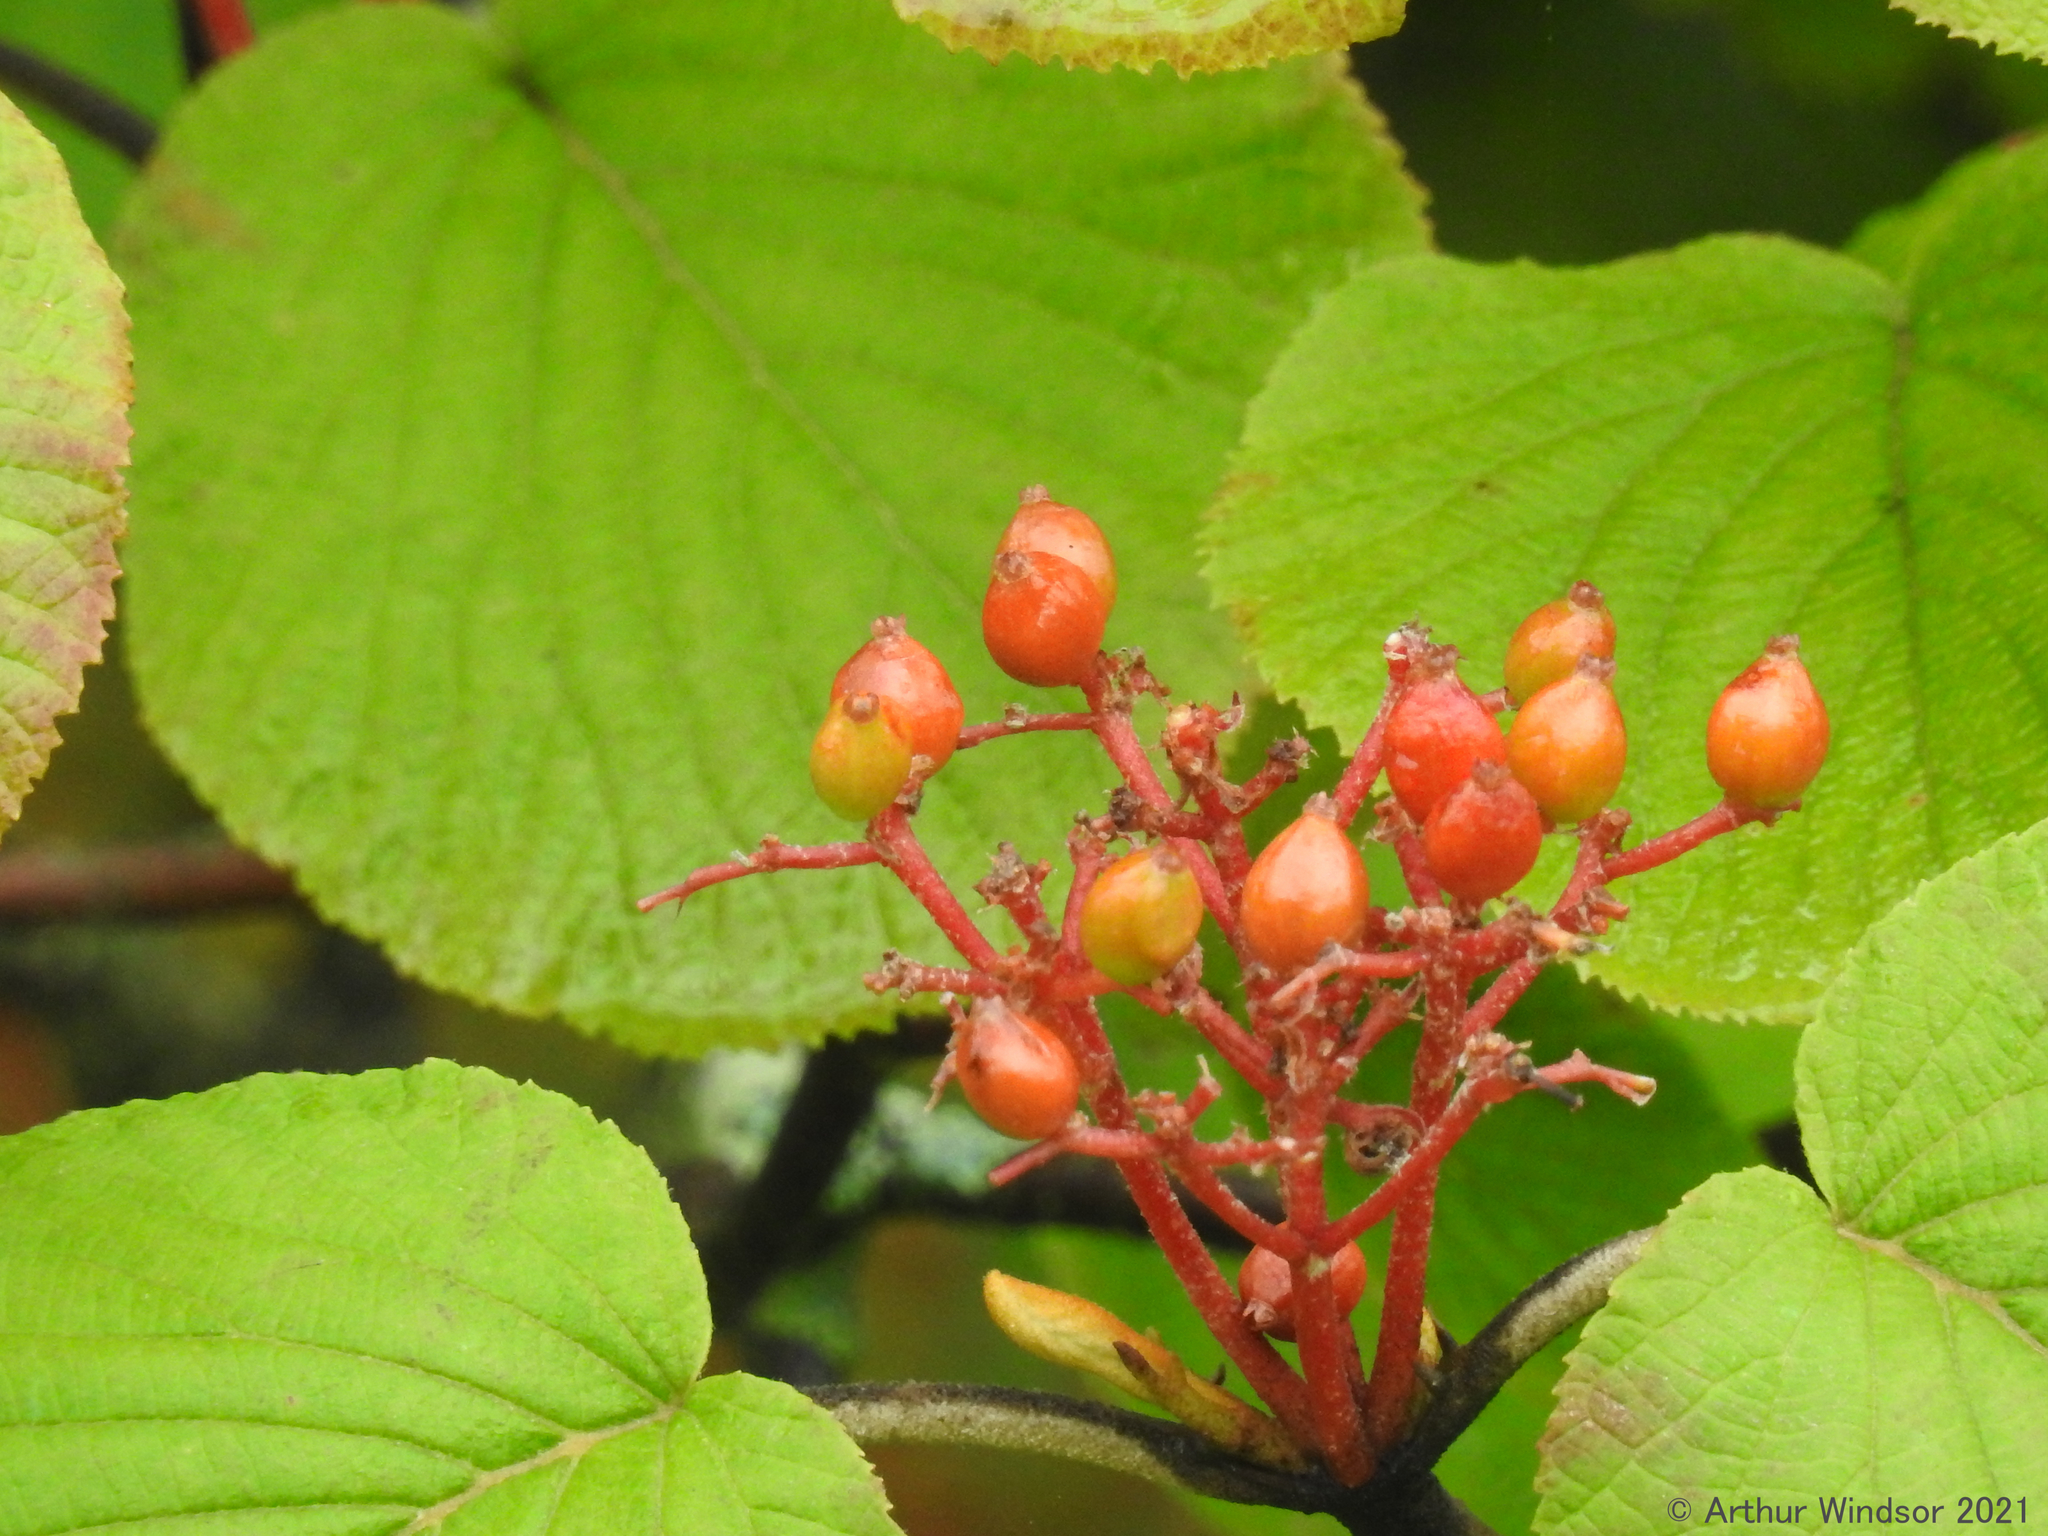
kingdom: Plantae
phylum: Tracheophyta
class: Magnoliopsida
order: Dipsacales
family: Viburnaceae
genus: Viburnum
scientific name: Viburnum lantanoides
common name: Hobblebush
